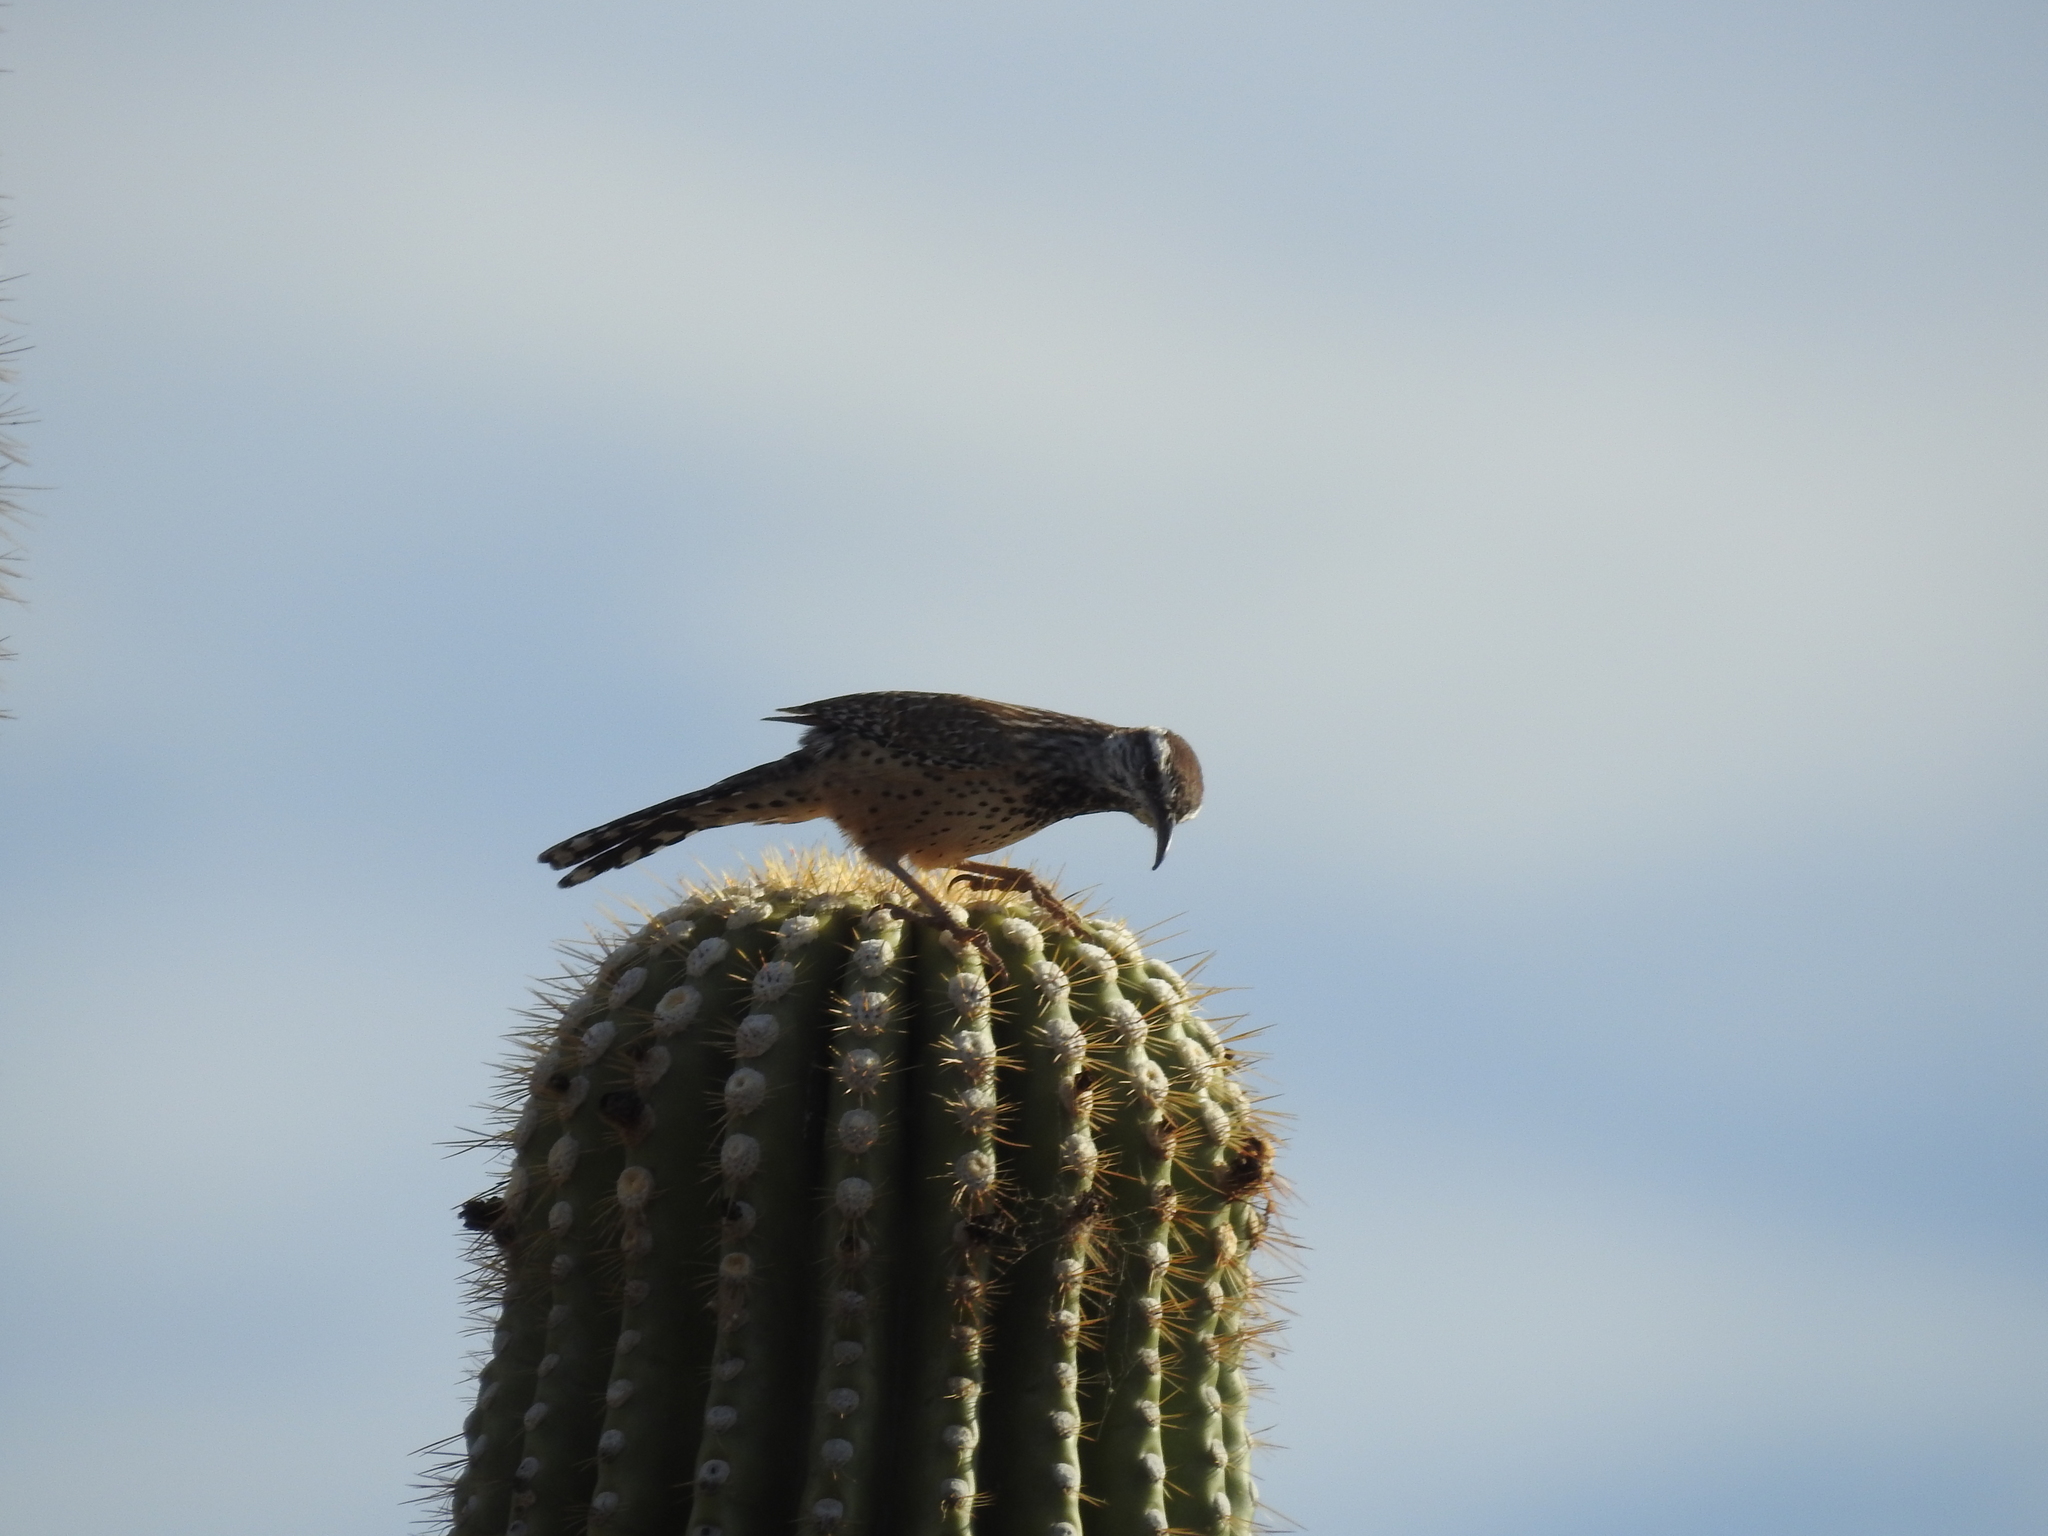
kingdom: Animalia
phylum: Chordata
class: Aves
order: Passeriformes
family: Troglodytidae
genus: Campylorhynchus
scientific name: Campylorhynchus brunneicapillus
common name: Cactus wren
